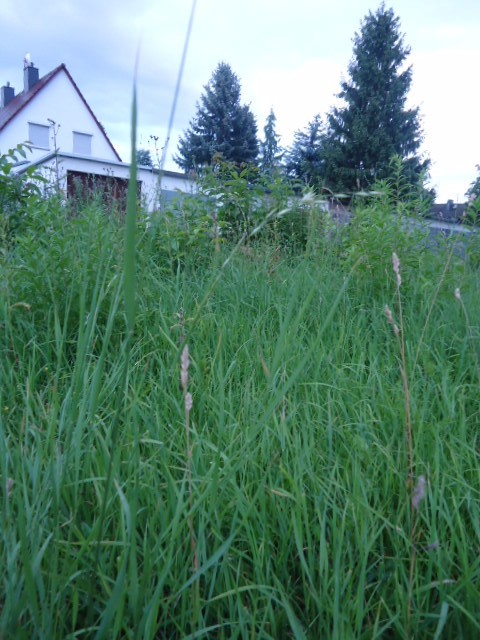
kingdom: Plantae
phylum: Tracheophyta
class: Liliopsida
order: Poales
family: Poaceae
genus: Arrhenatherum
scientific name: Arrhenatherum elatius
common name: Tall oatgrass
